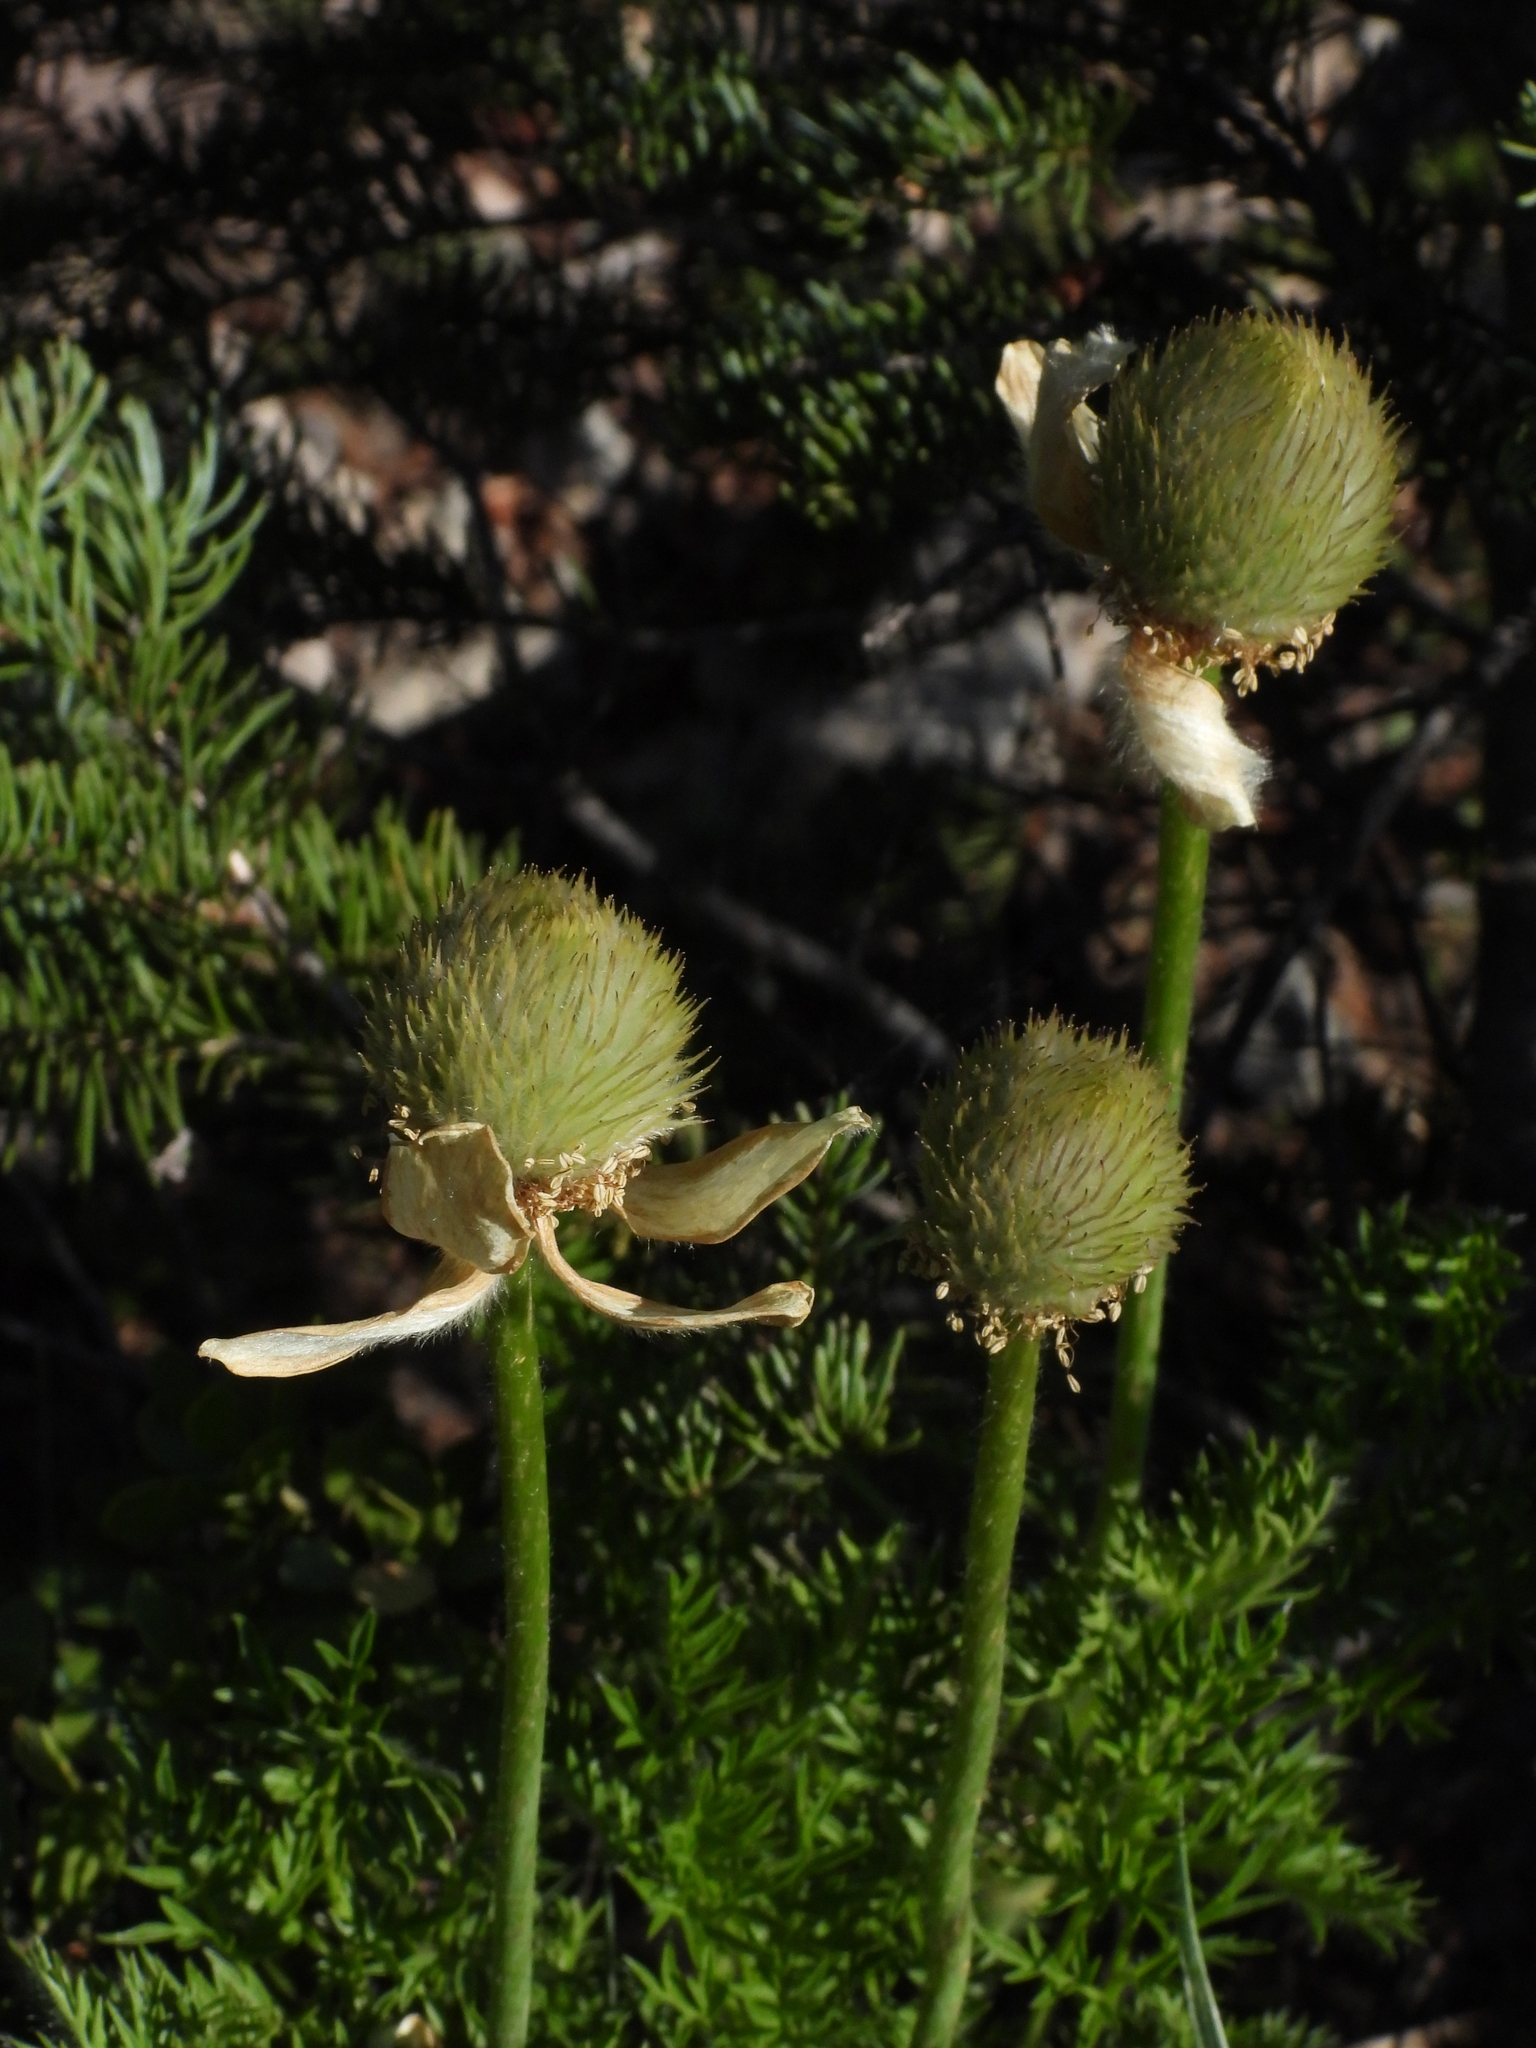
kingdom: Plantae
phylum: Tracheophyta
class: Magnoliopsida
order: Ranunculales
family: Ranunculaceae
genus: Pulsatilla
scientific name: Pulsatilla occidentalis
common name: Mountain pasqueflower
